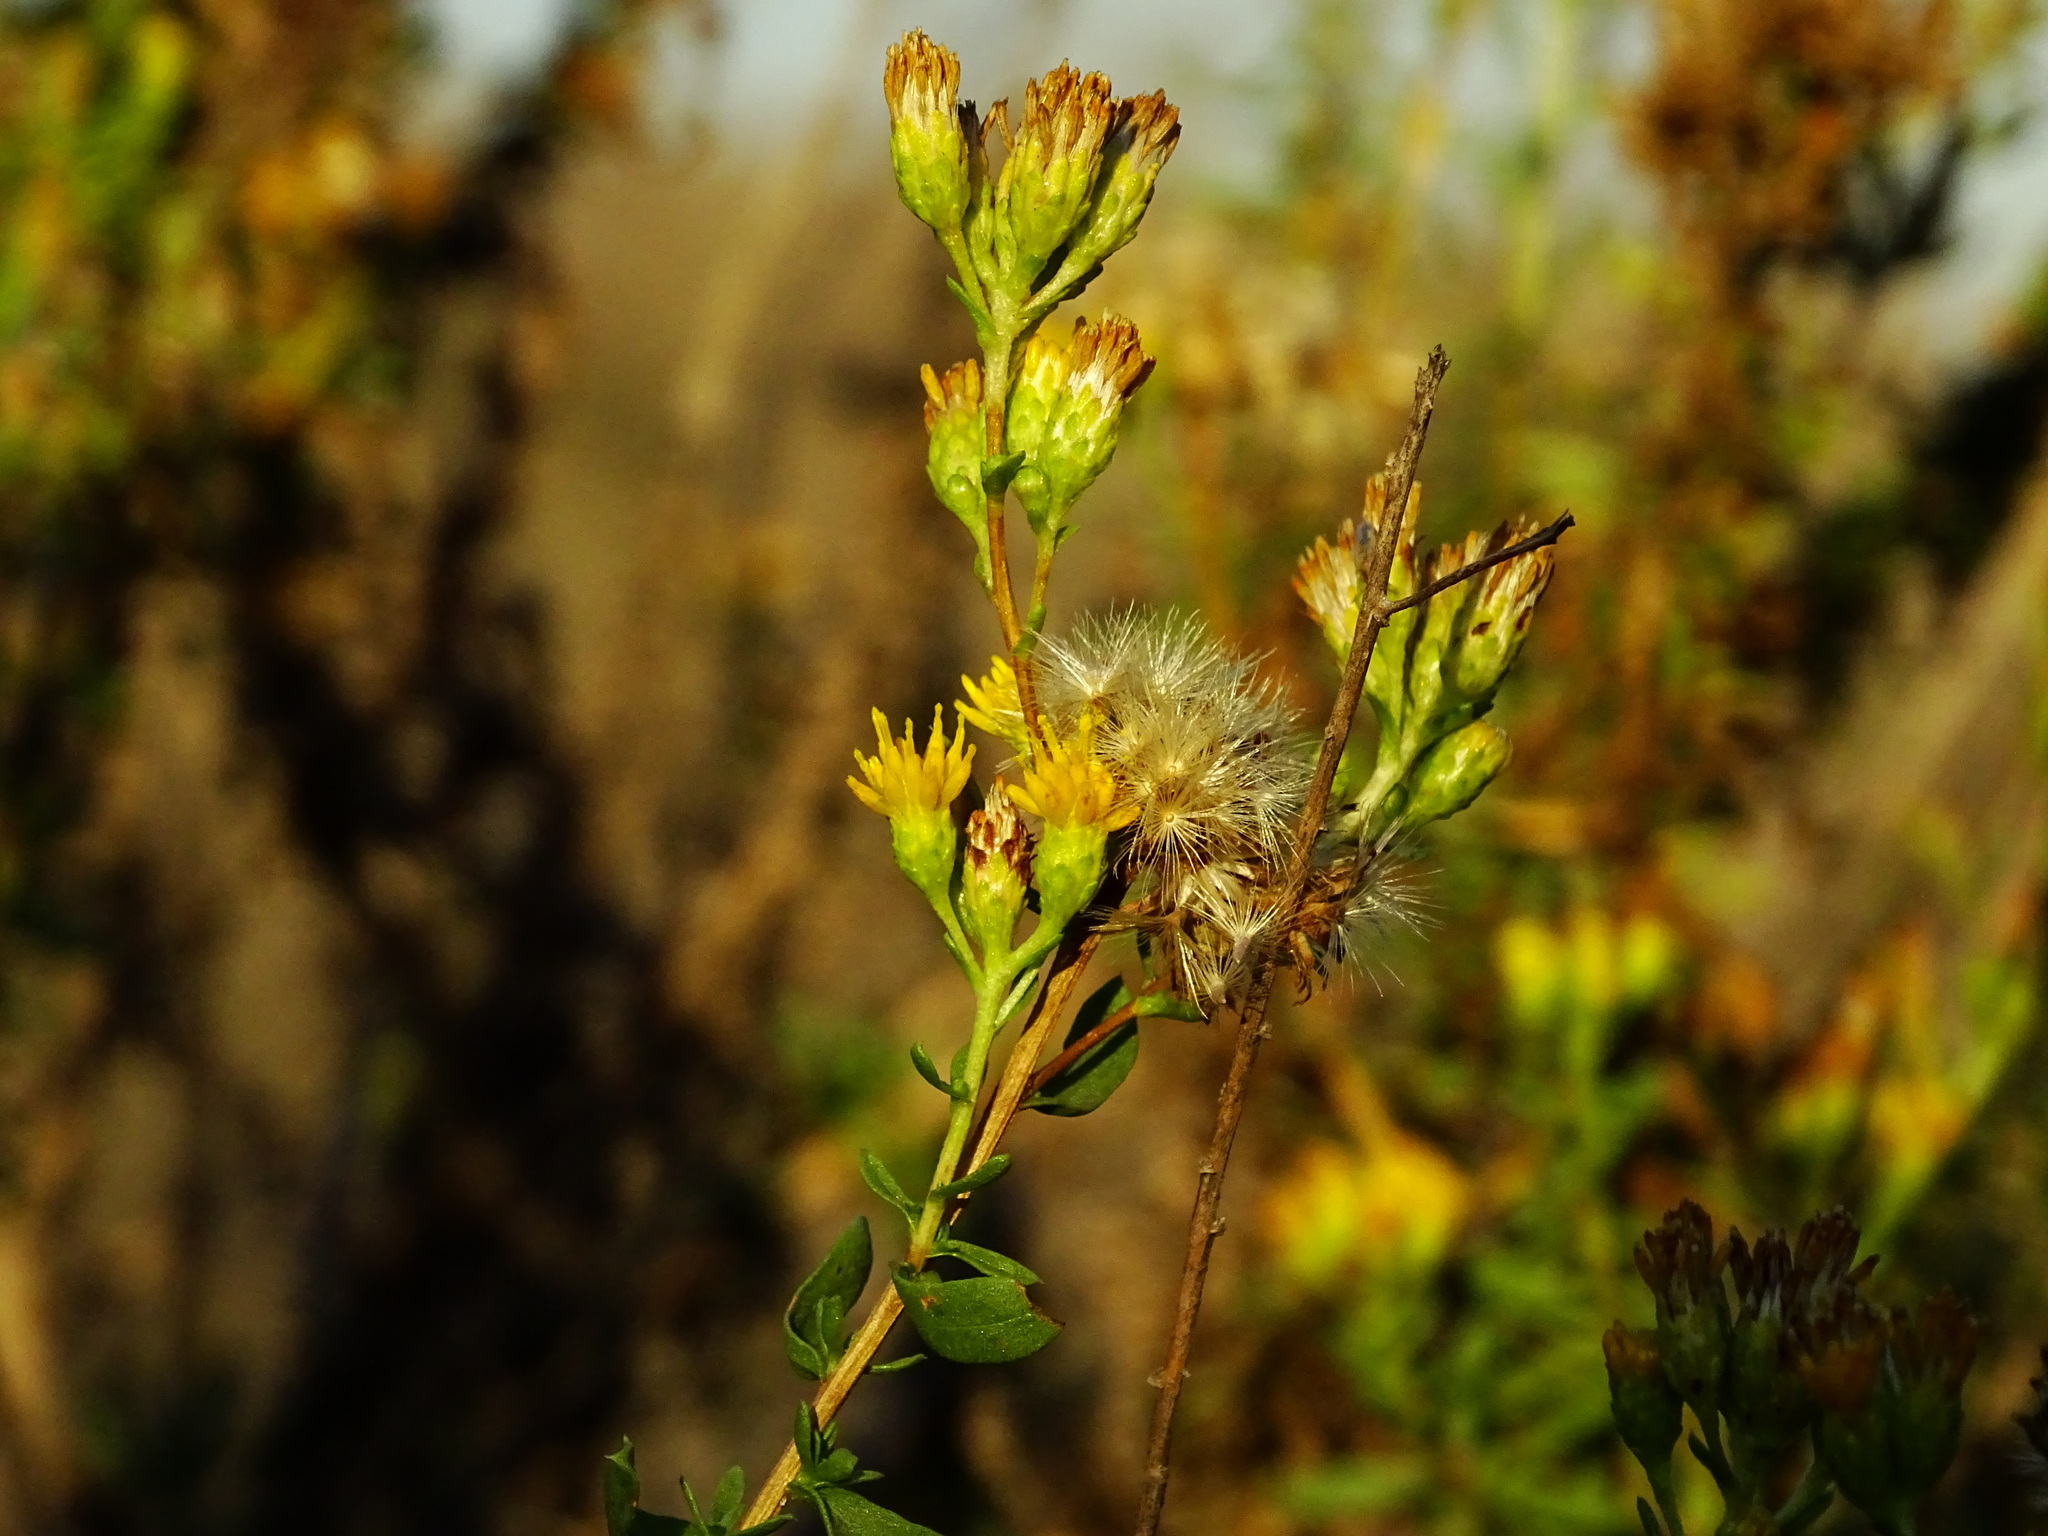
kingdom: Plantae
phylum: Tracheophyta
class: Magnoliopsida
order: Asterales
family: Asteraceae
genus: Isocoma
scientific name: Isocoma menziesii
